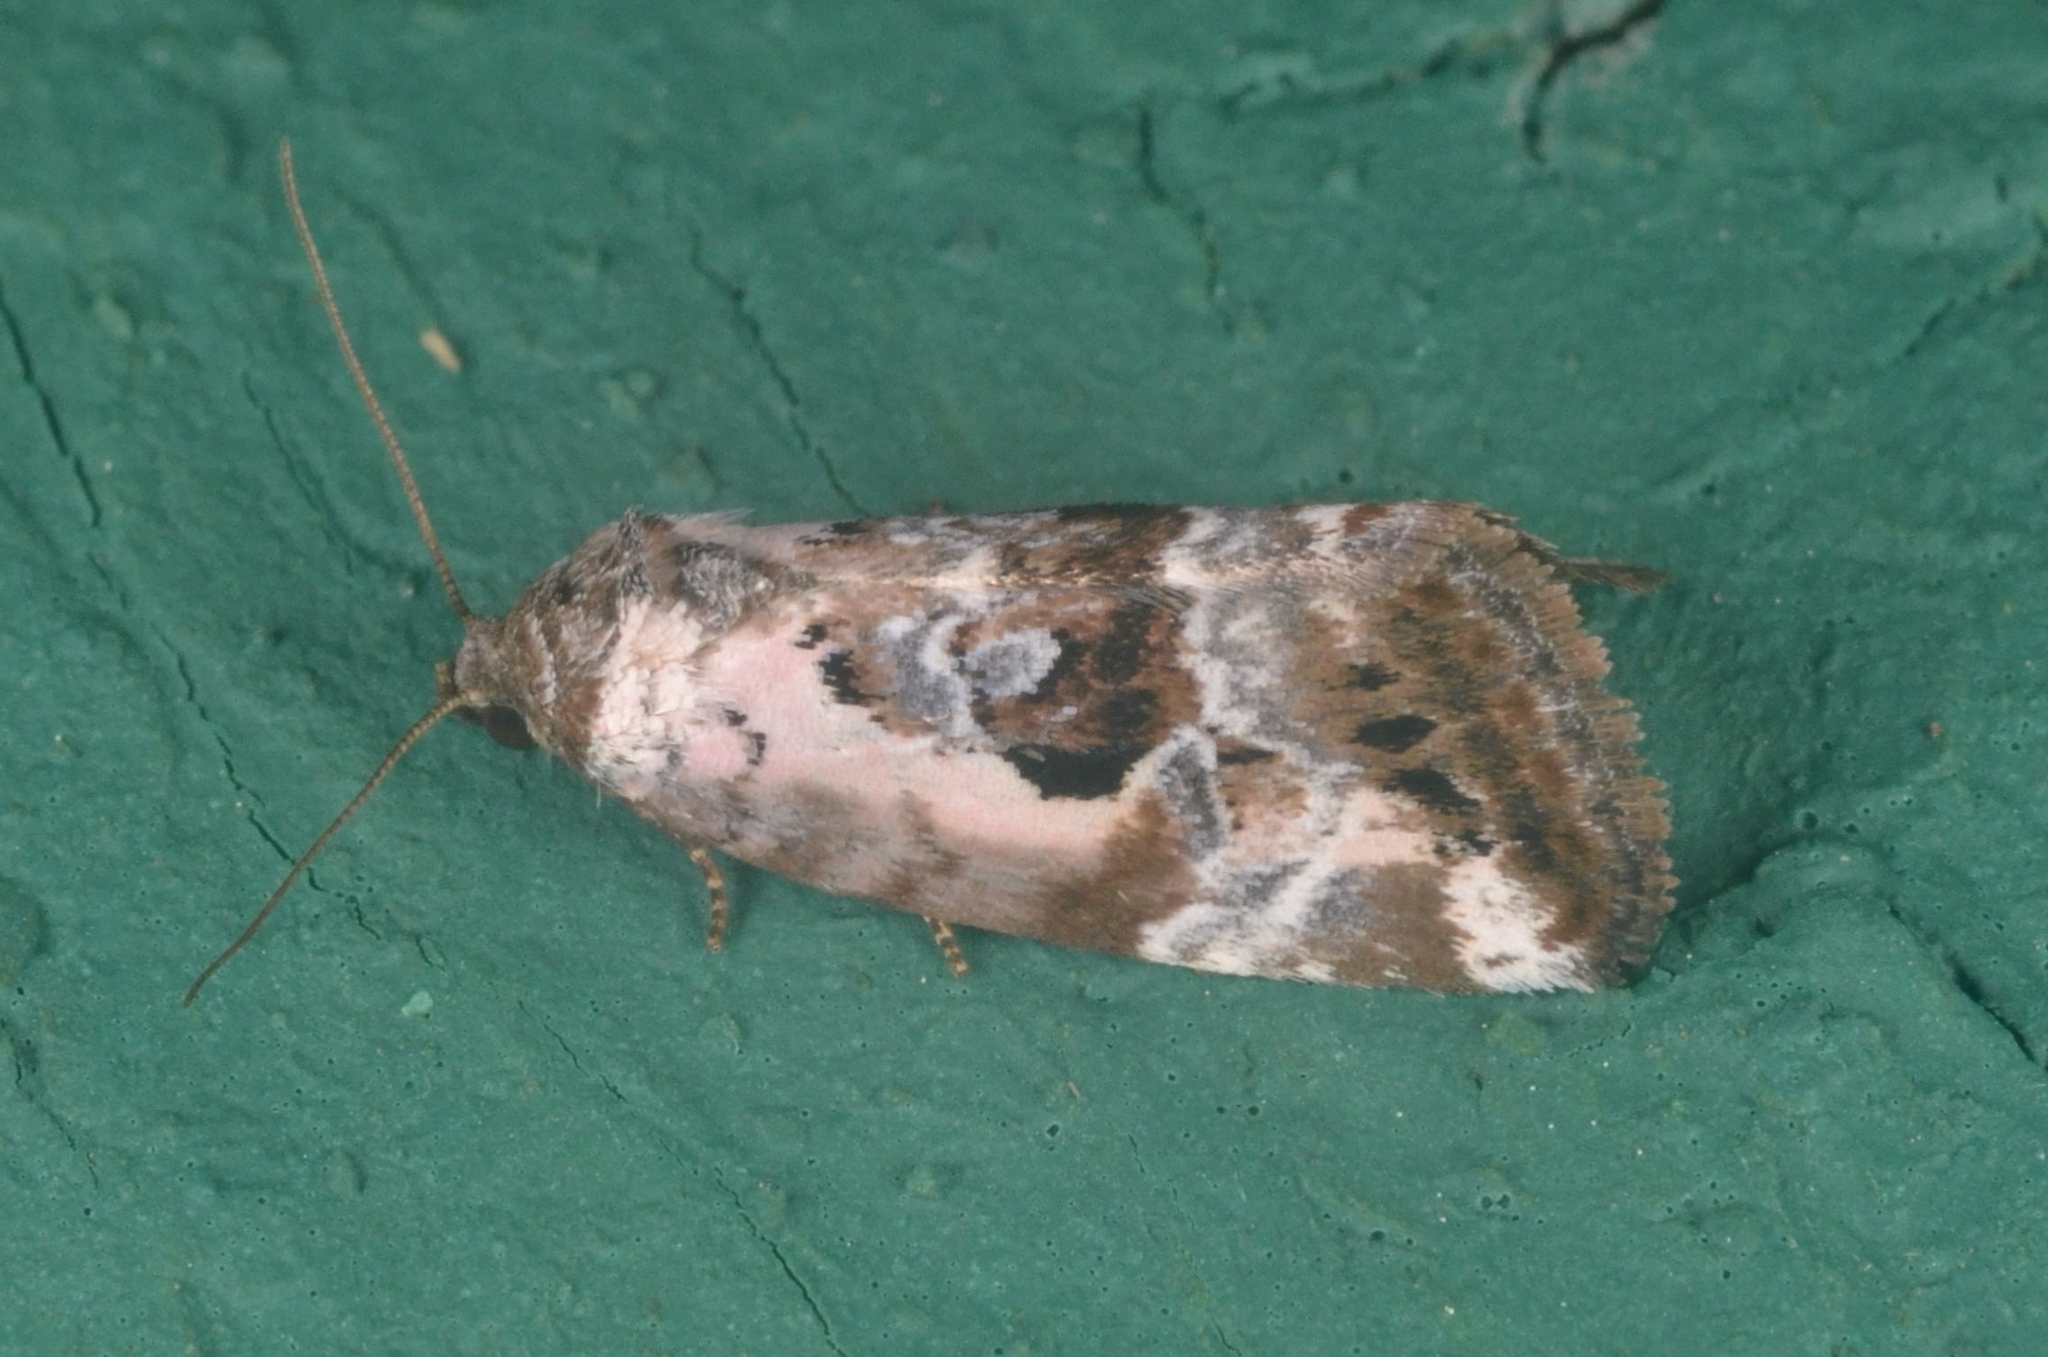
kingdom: Animalia
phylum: Arthropoda
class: Insecta
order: Lepidoptera
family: Noctuidae
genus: Elaphria
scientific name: Elaphria venustula
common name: Rosy marbled
